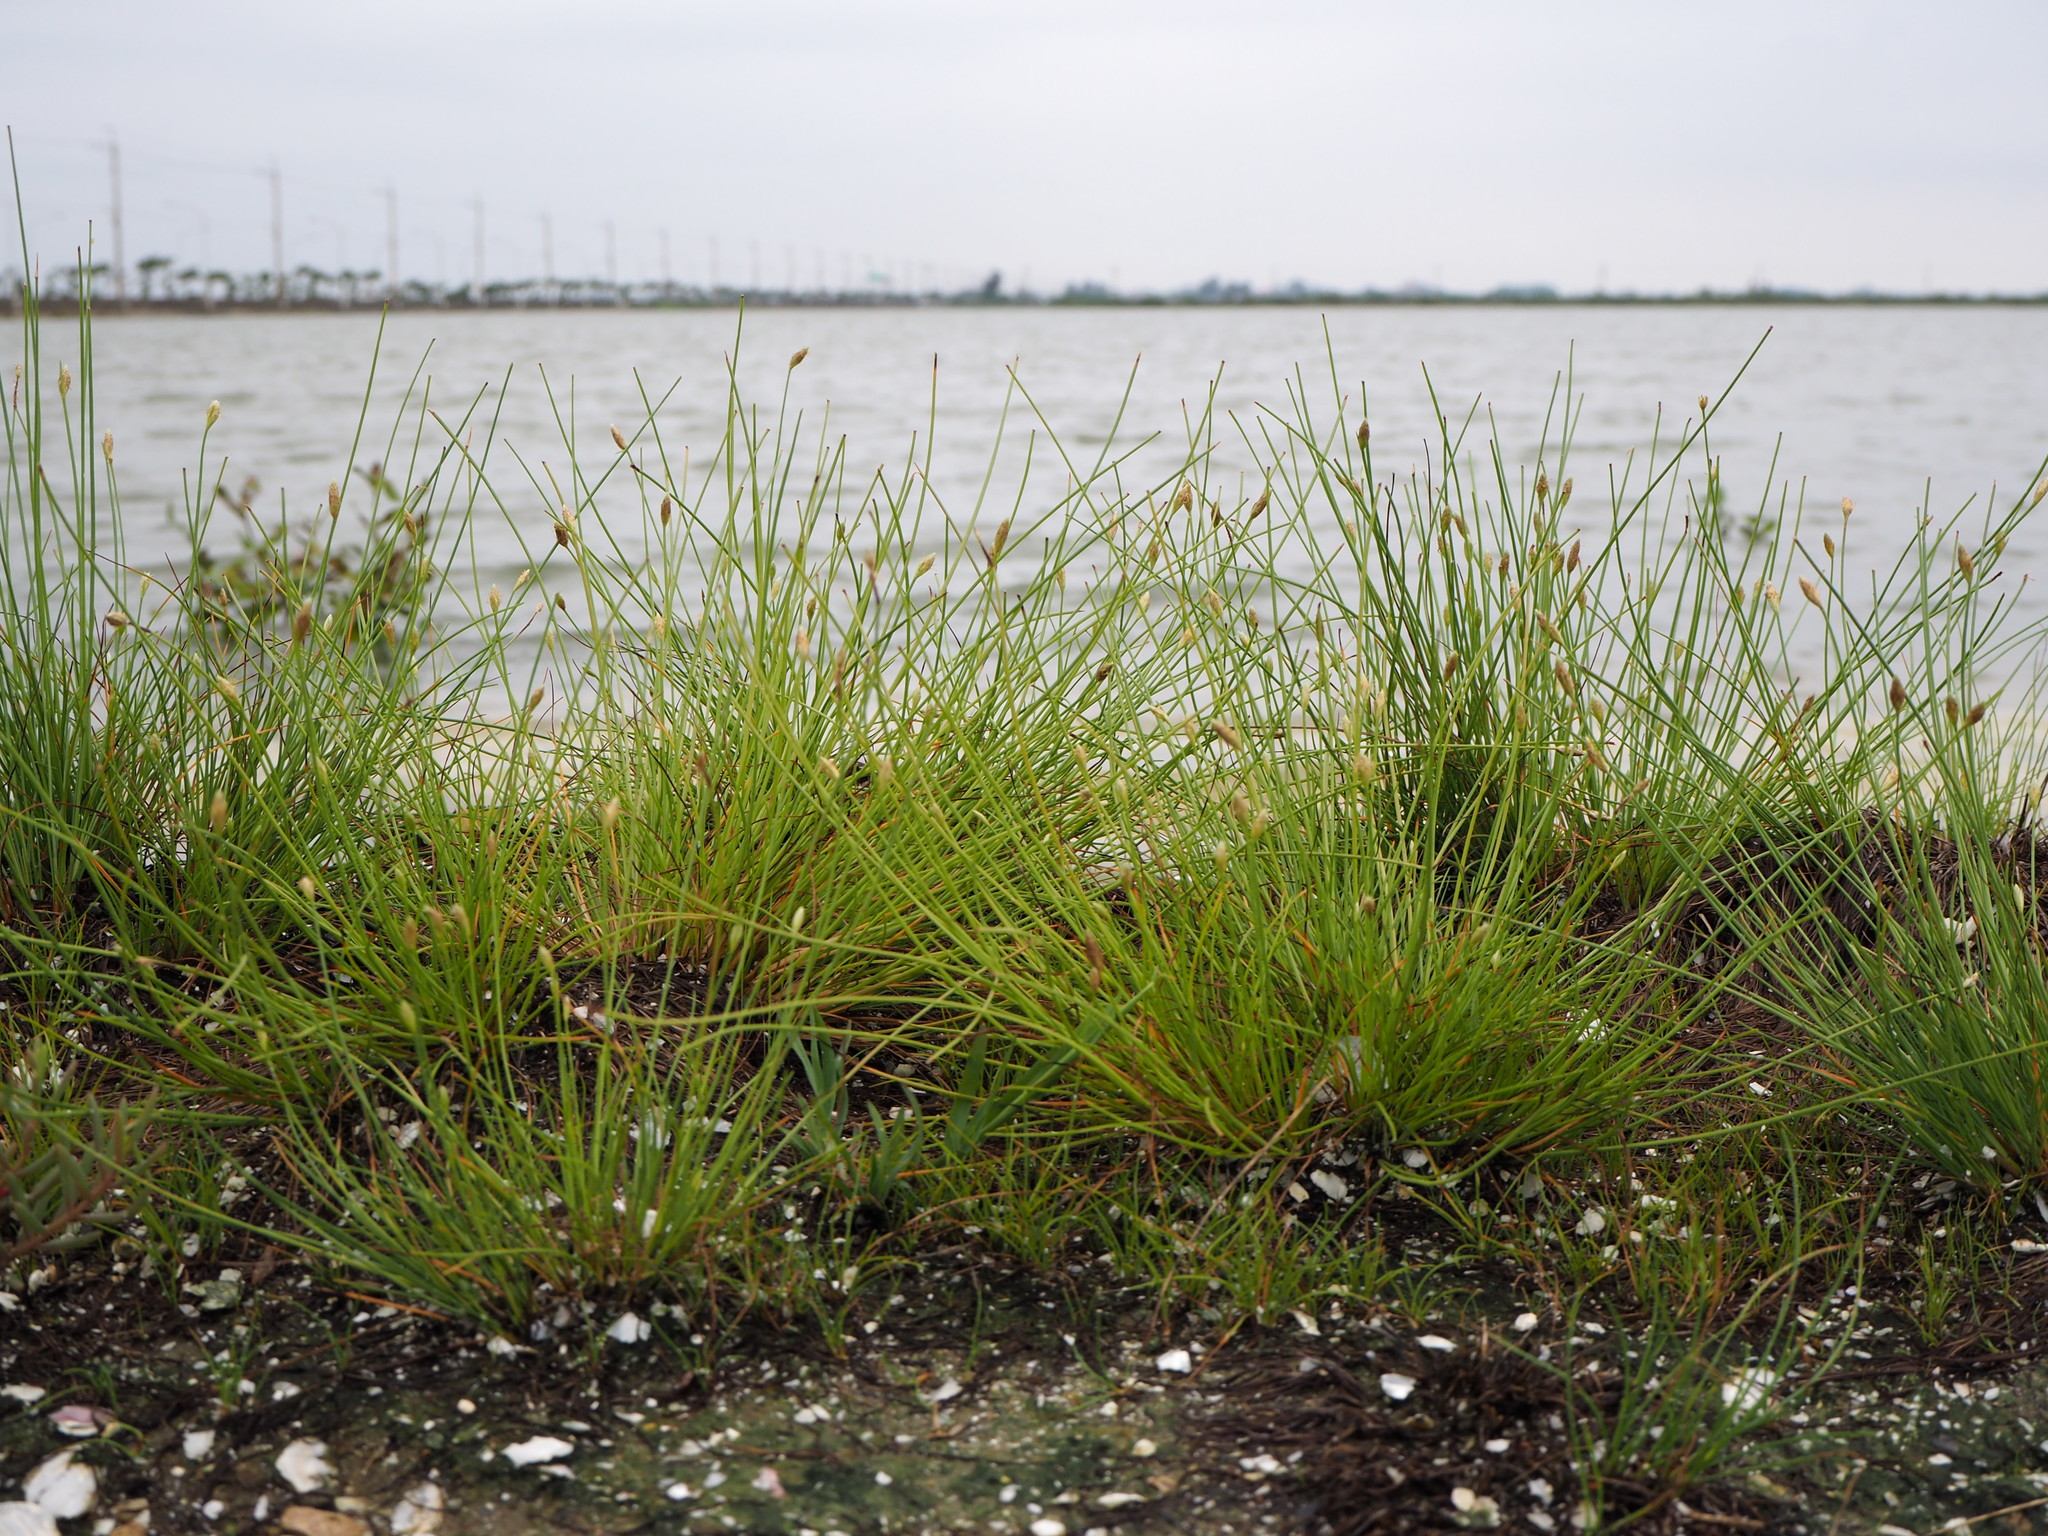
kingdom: Plantae
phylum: Tracheophyta
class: Liliopsida
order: Poales
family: Cyperaceae
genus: Fimbristylis
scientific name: Fimbristylis polytrichoides
